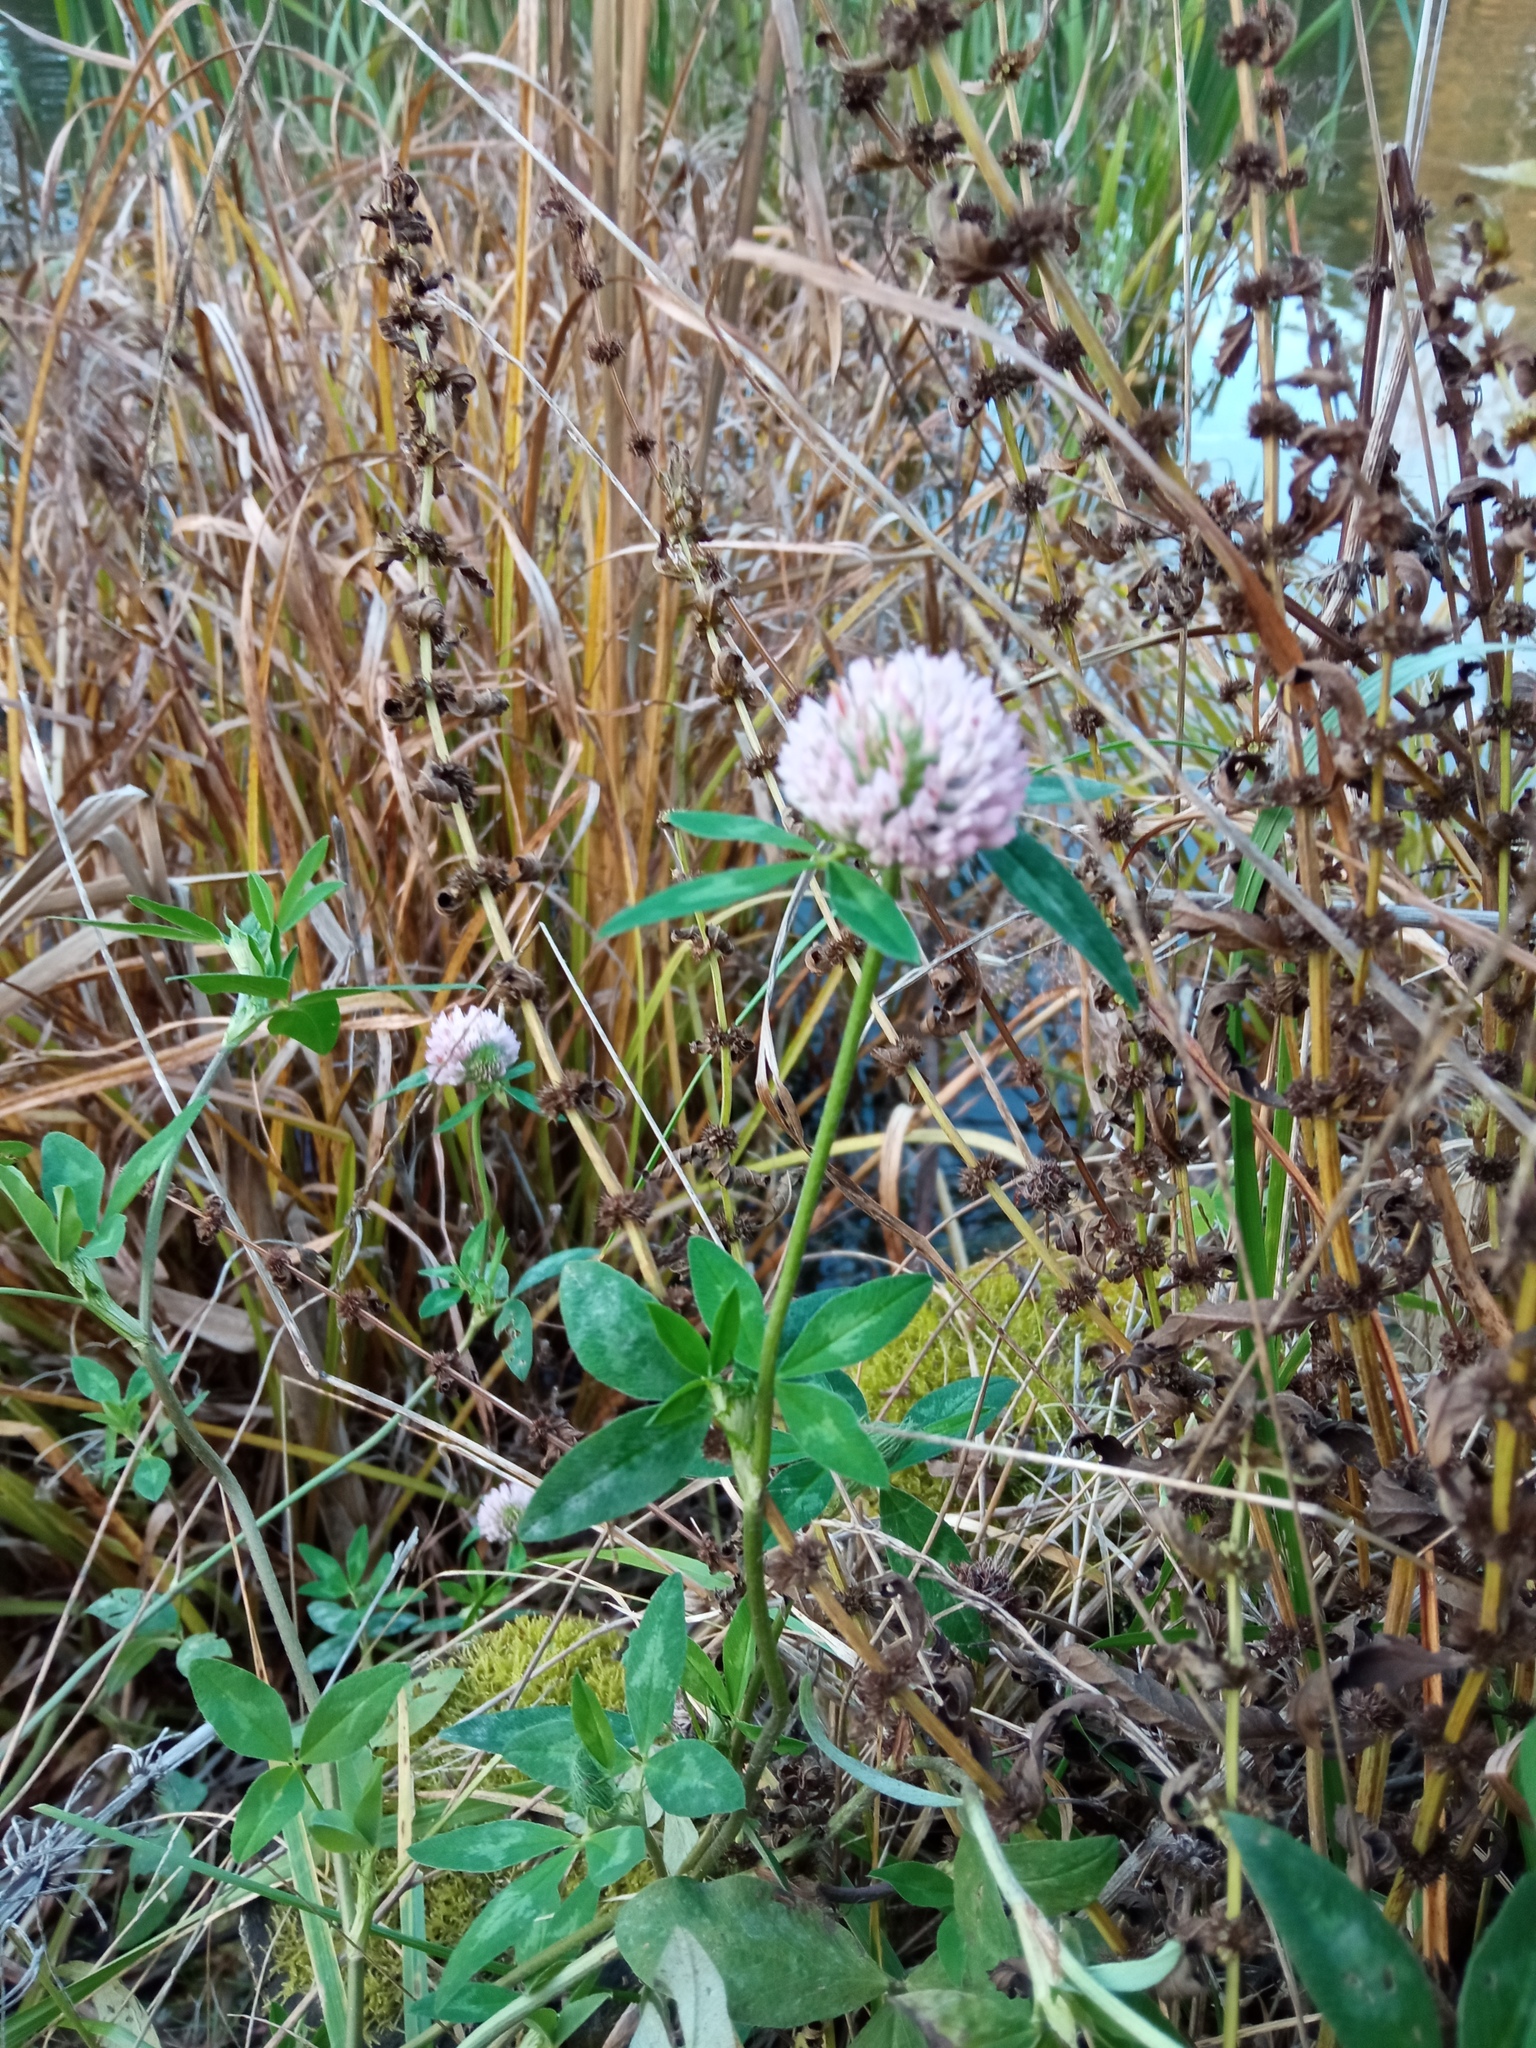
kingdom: Plantae
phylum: Tracheophyta
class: Magnoliopsida
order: Fabales
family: Fabaceae
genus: Trifolium
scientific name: Trifolium pratense
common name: Red clover
